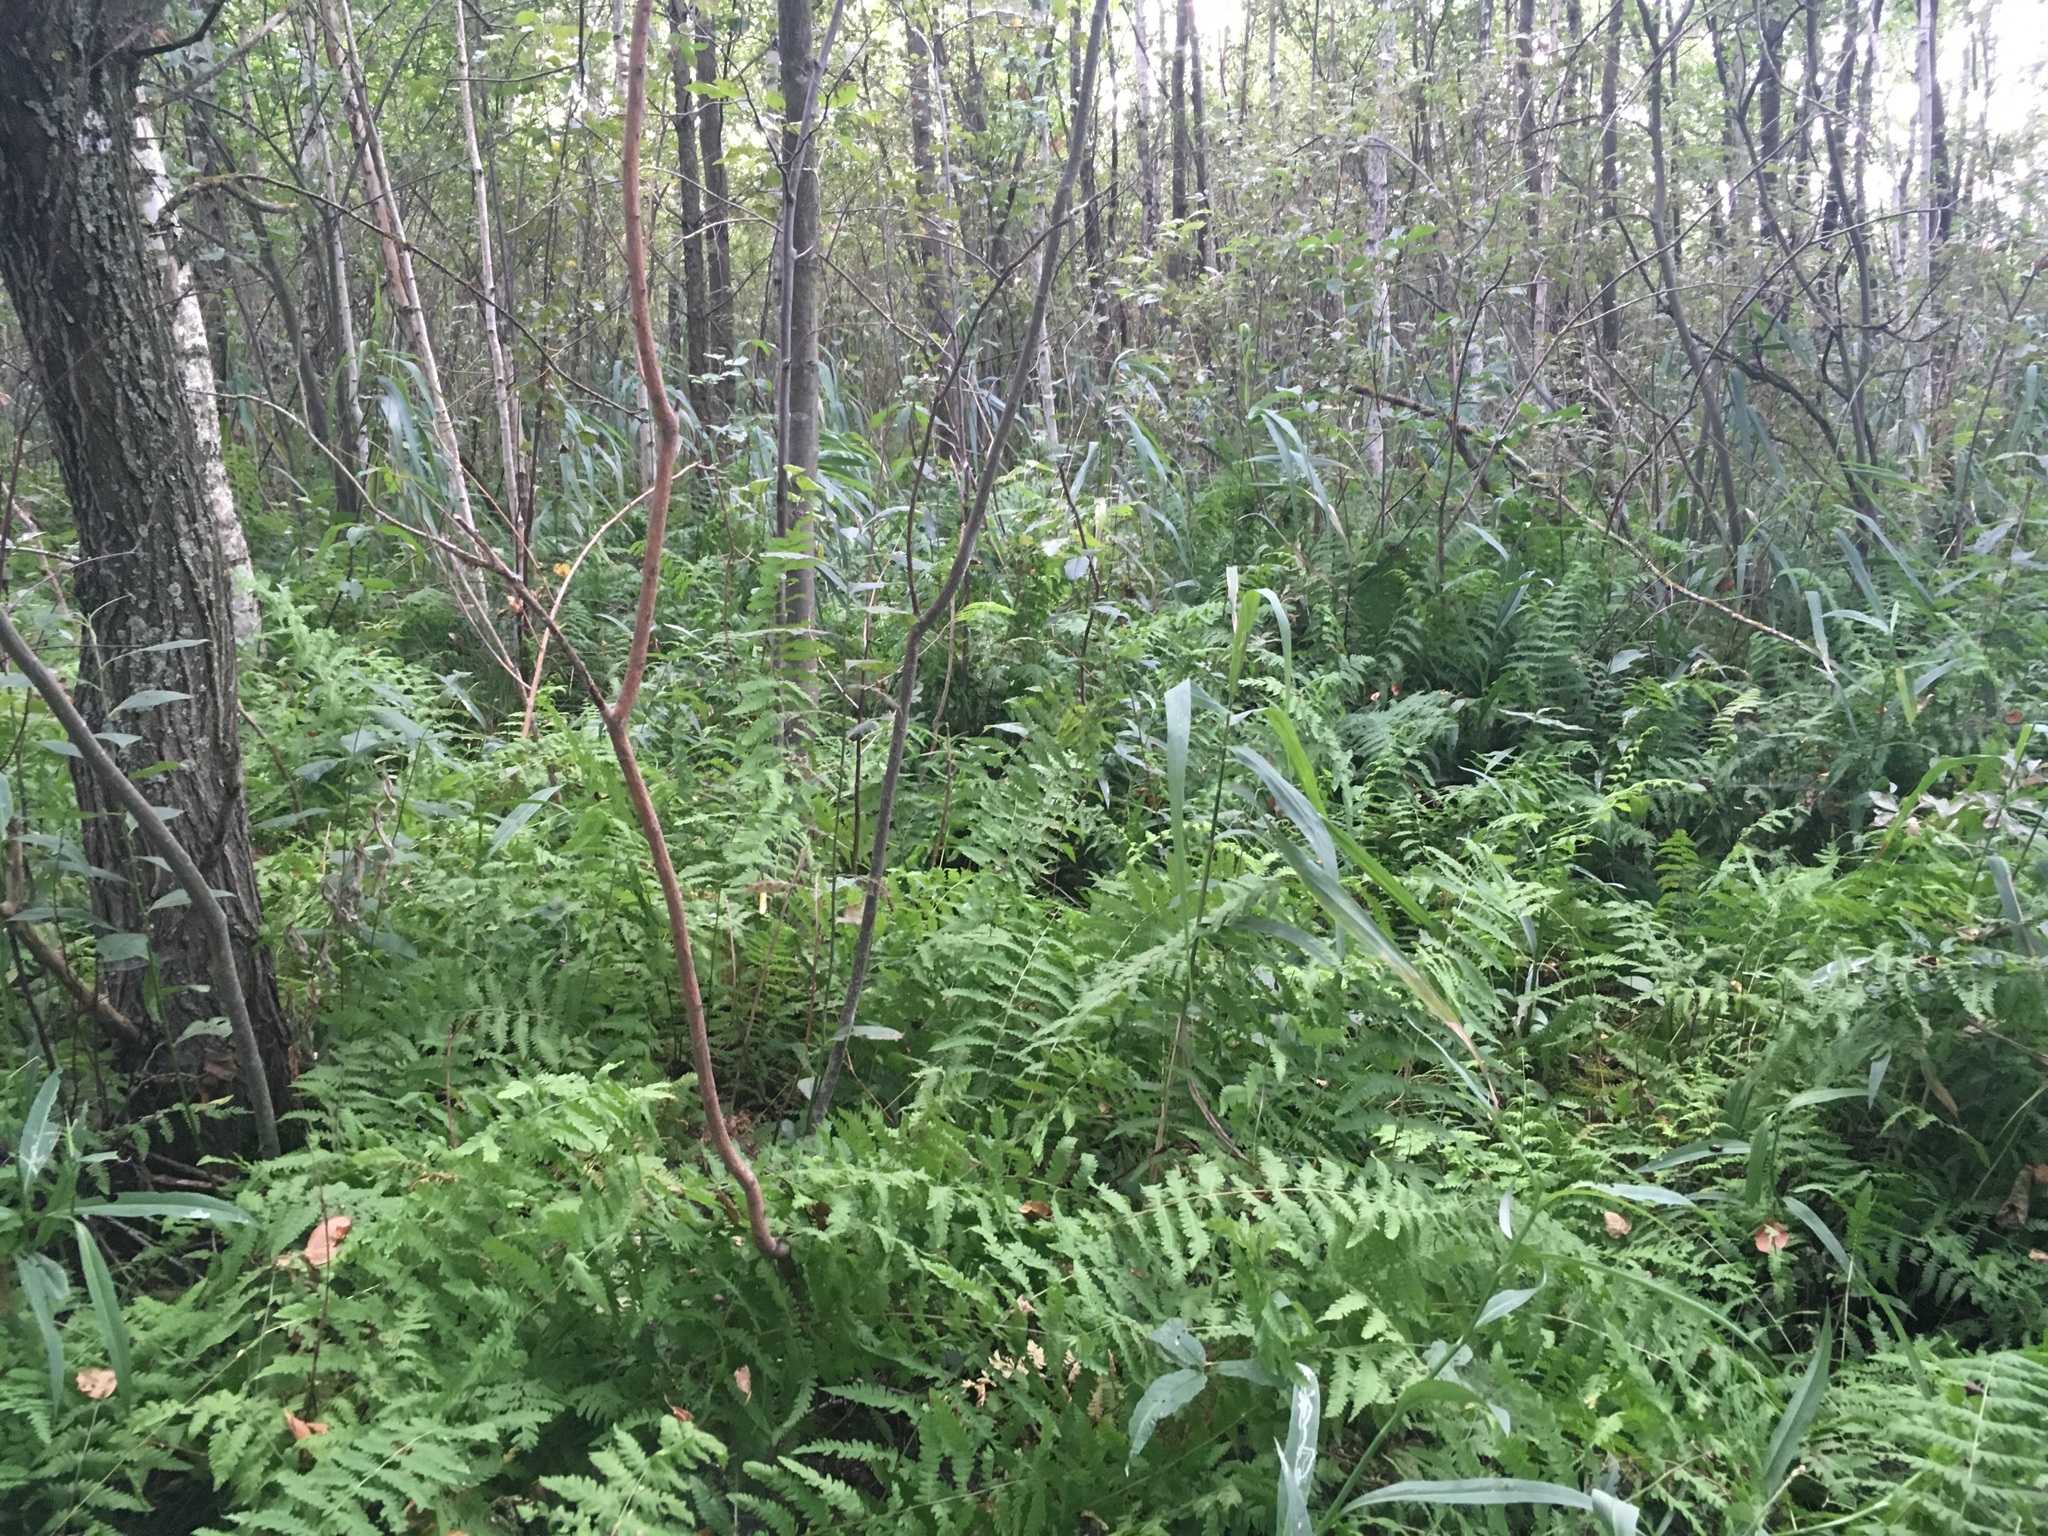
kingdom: Plantae
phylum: Tracheophyta
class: Polypodiopsida
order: Polypodiales
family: Thelypteridaceae
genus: Thelypteris
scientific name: Thelypteris palustris
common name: Marsh fern
